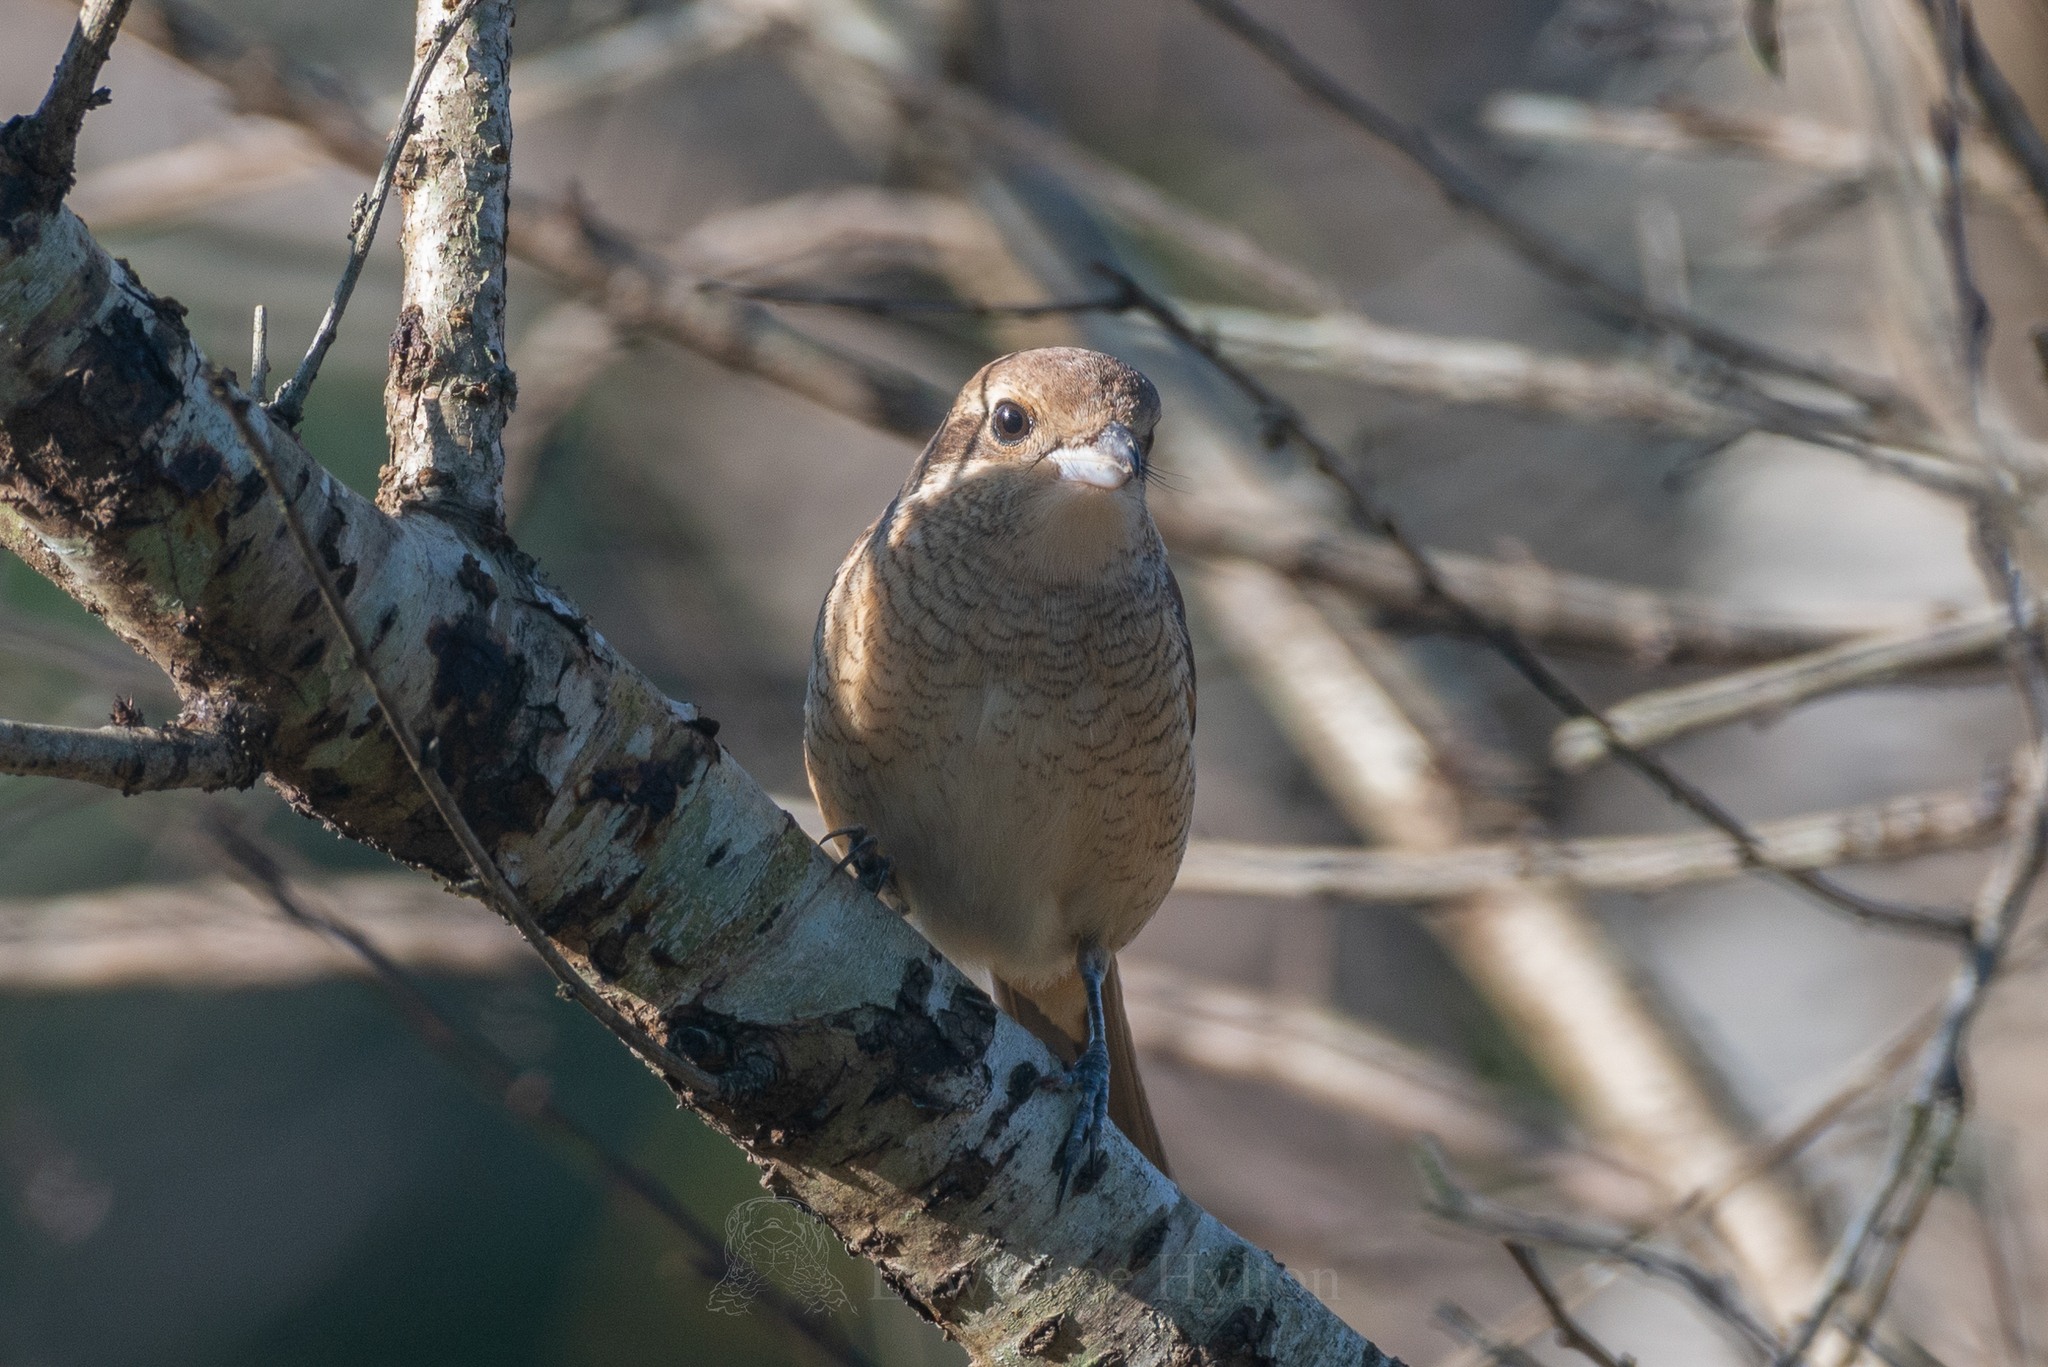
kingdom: Animalia
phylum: Chordata
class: Aves
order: Passeriformes
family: Laniidae
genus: Lanius
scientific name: Lanius tephronotus
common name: Grey-backed shrike
